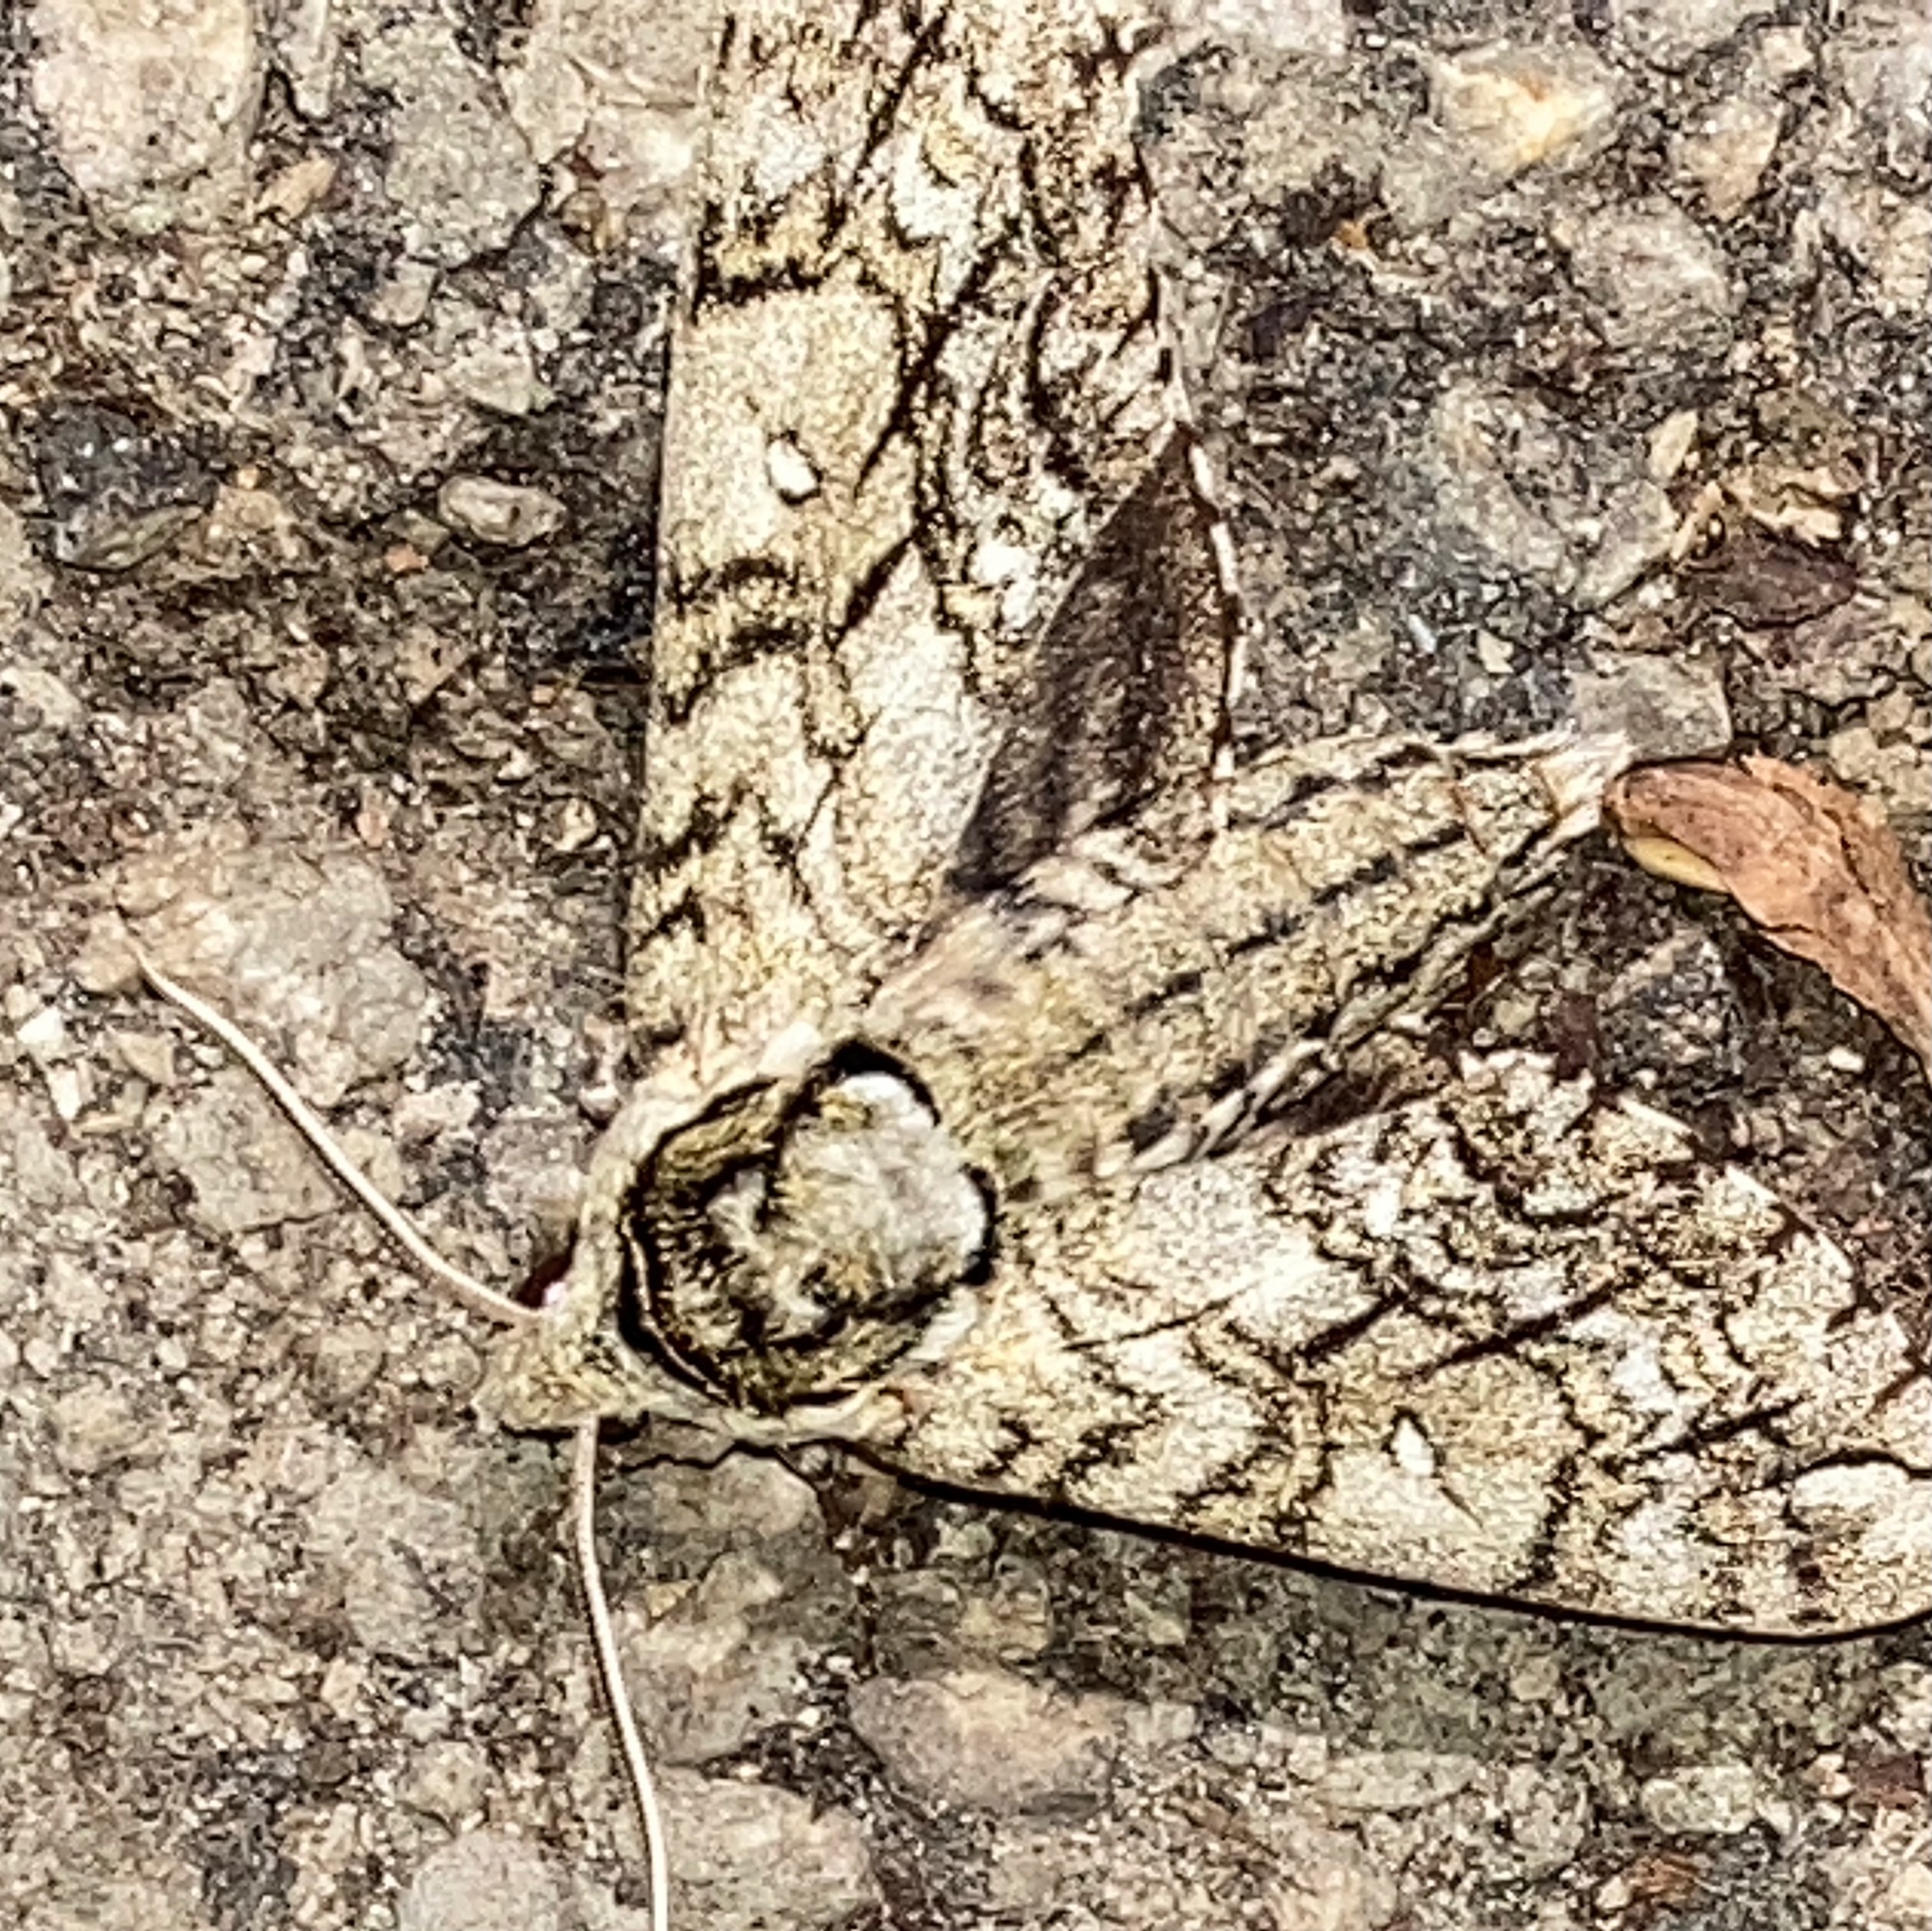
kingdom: Animalia
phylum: Arthropoda
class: Insecta
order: Lepidoptera
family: Sphingidae
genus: Ceratomia
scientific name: Ceratomia undulosa
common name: Waved sphinx
